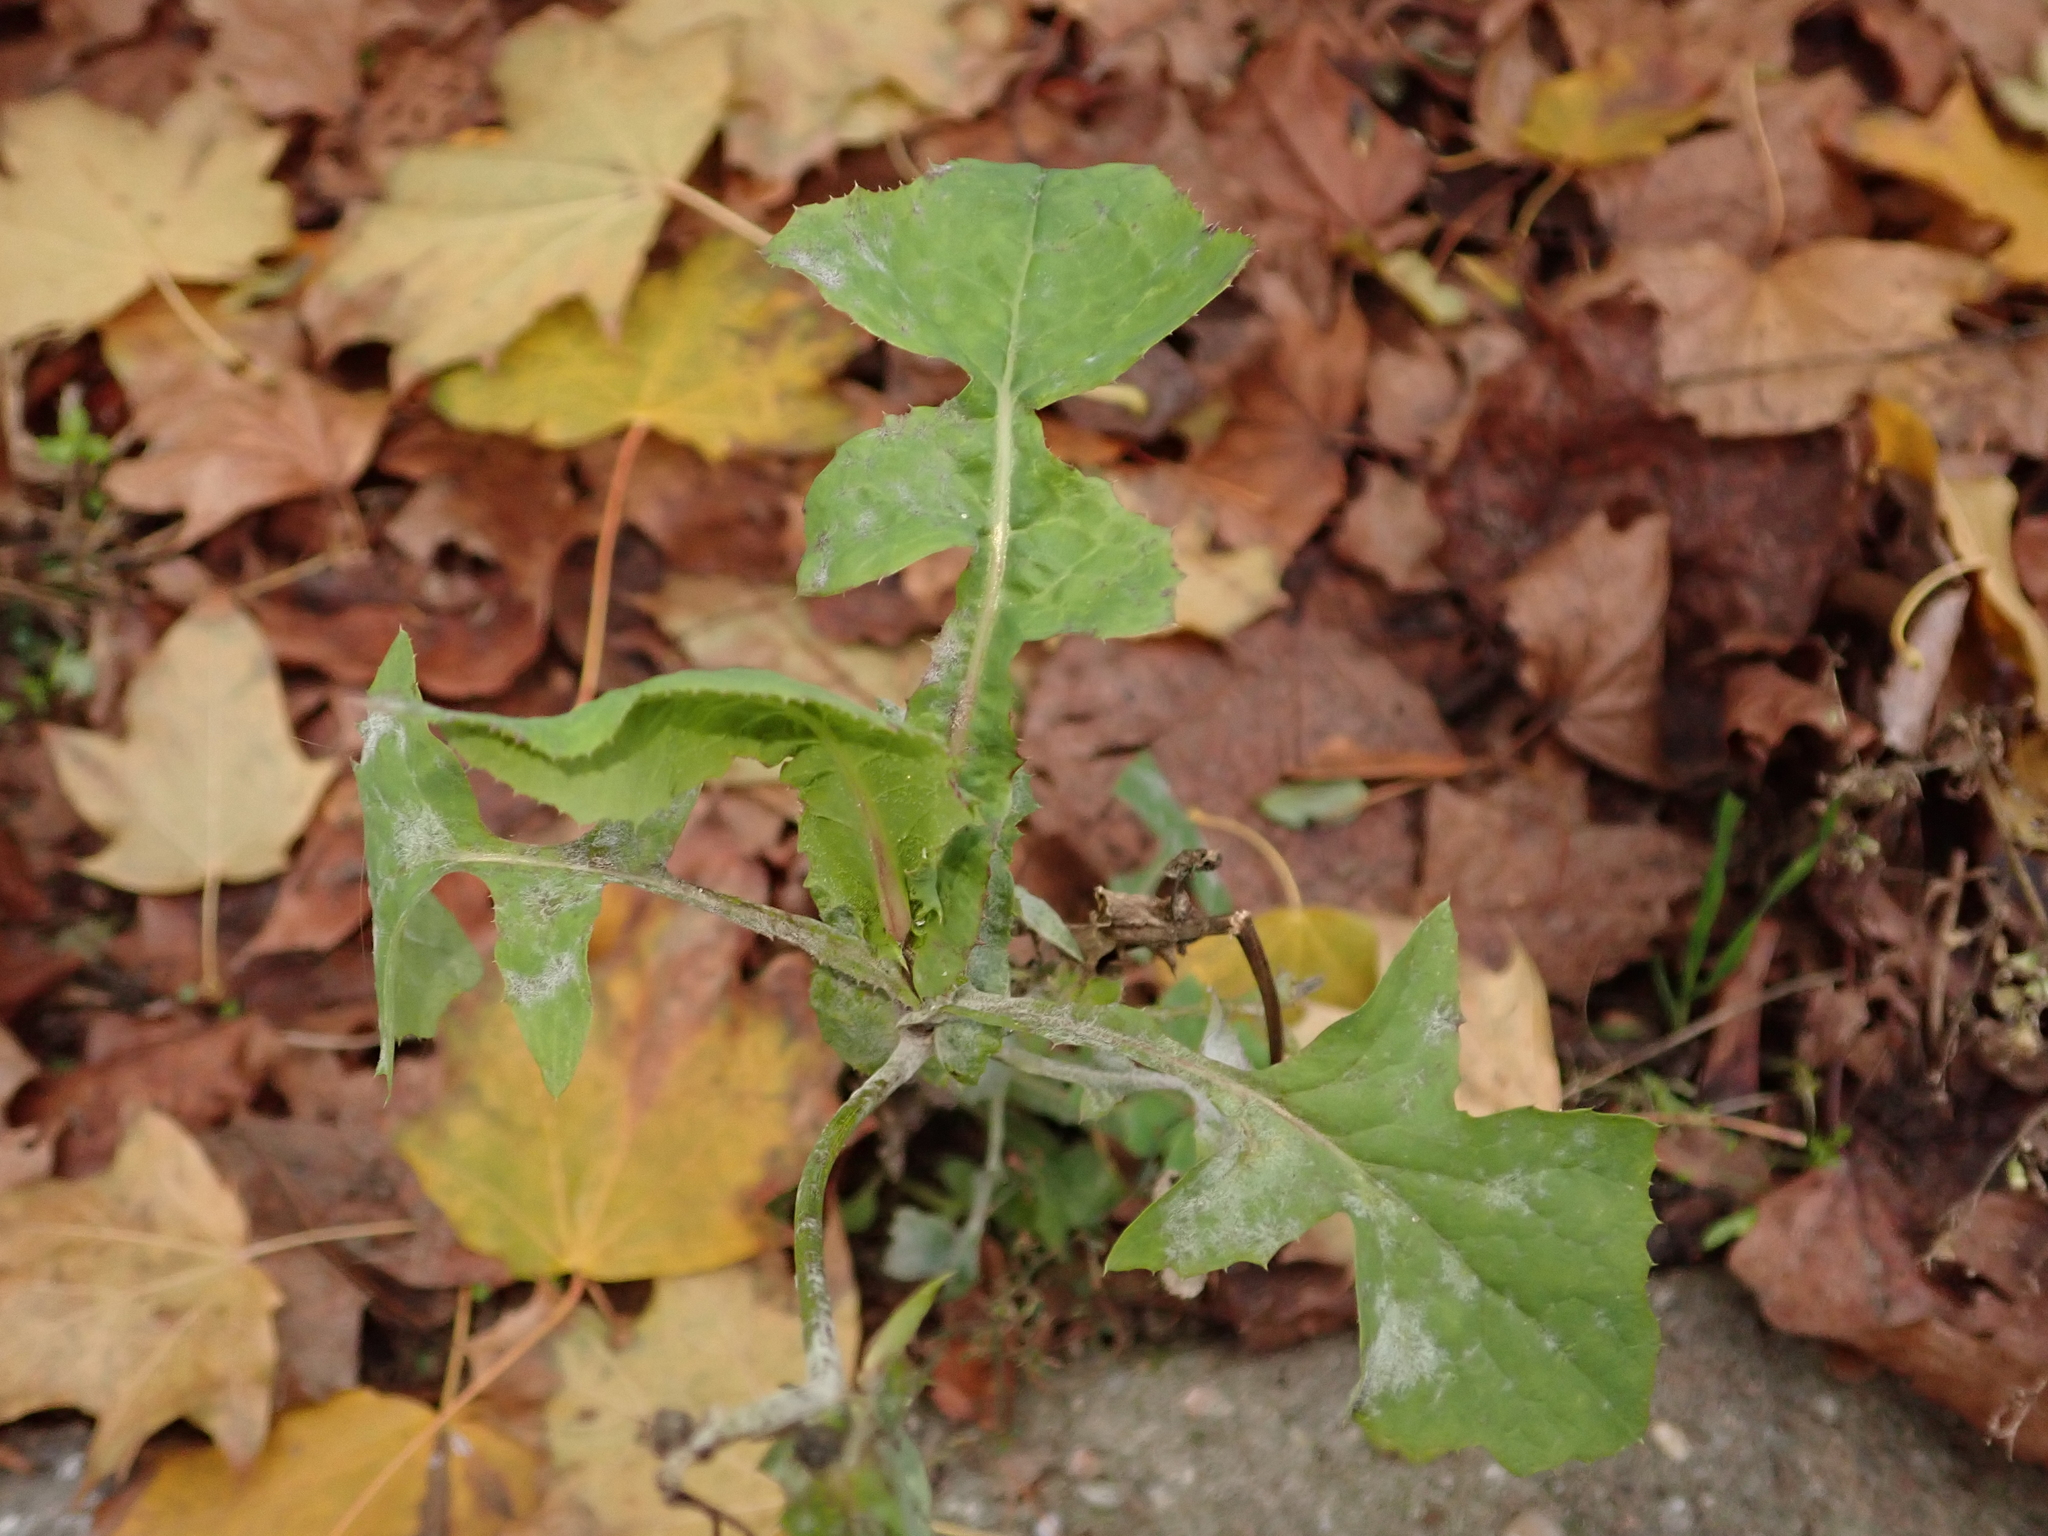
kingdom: Plantae
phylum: Tracheophyta
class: Magnoliopsida
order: Asterales
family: Asteraceae
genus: Sonchus
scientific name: Sonchus oleraceus
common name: Common sowthistle
